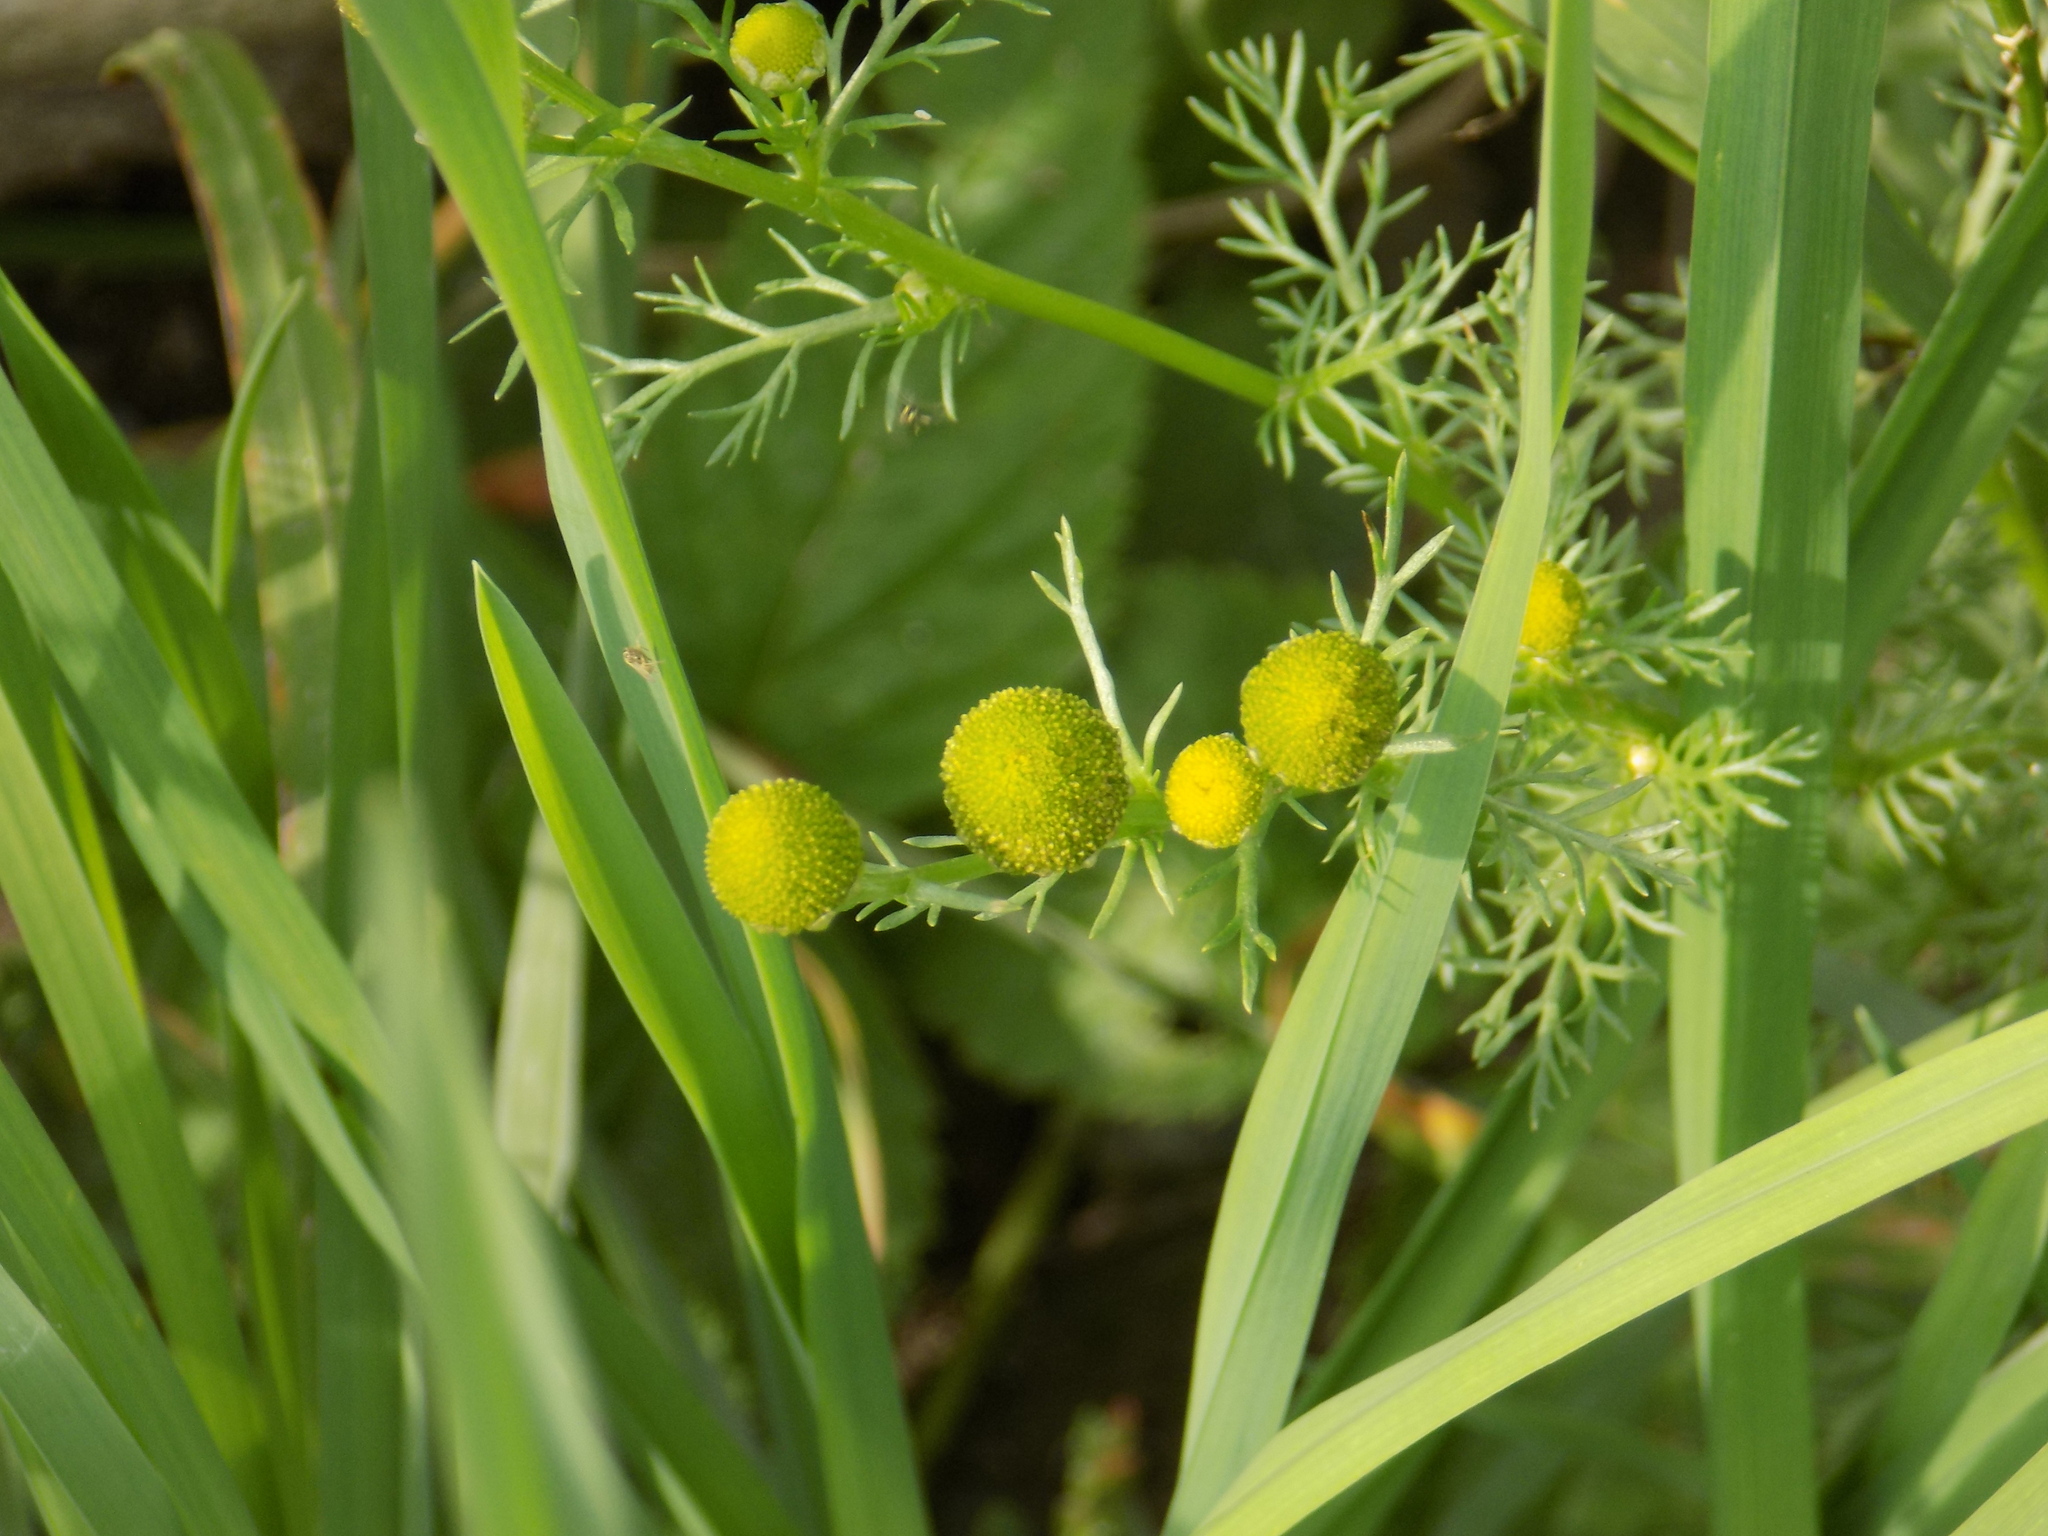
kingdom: Plantae
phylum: Tracheophyta
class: Magnoliopsida
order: Asterales
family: Asteraceae
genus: Matricaria
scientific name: Matricaria discoidea
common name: Disc mayweed
